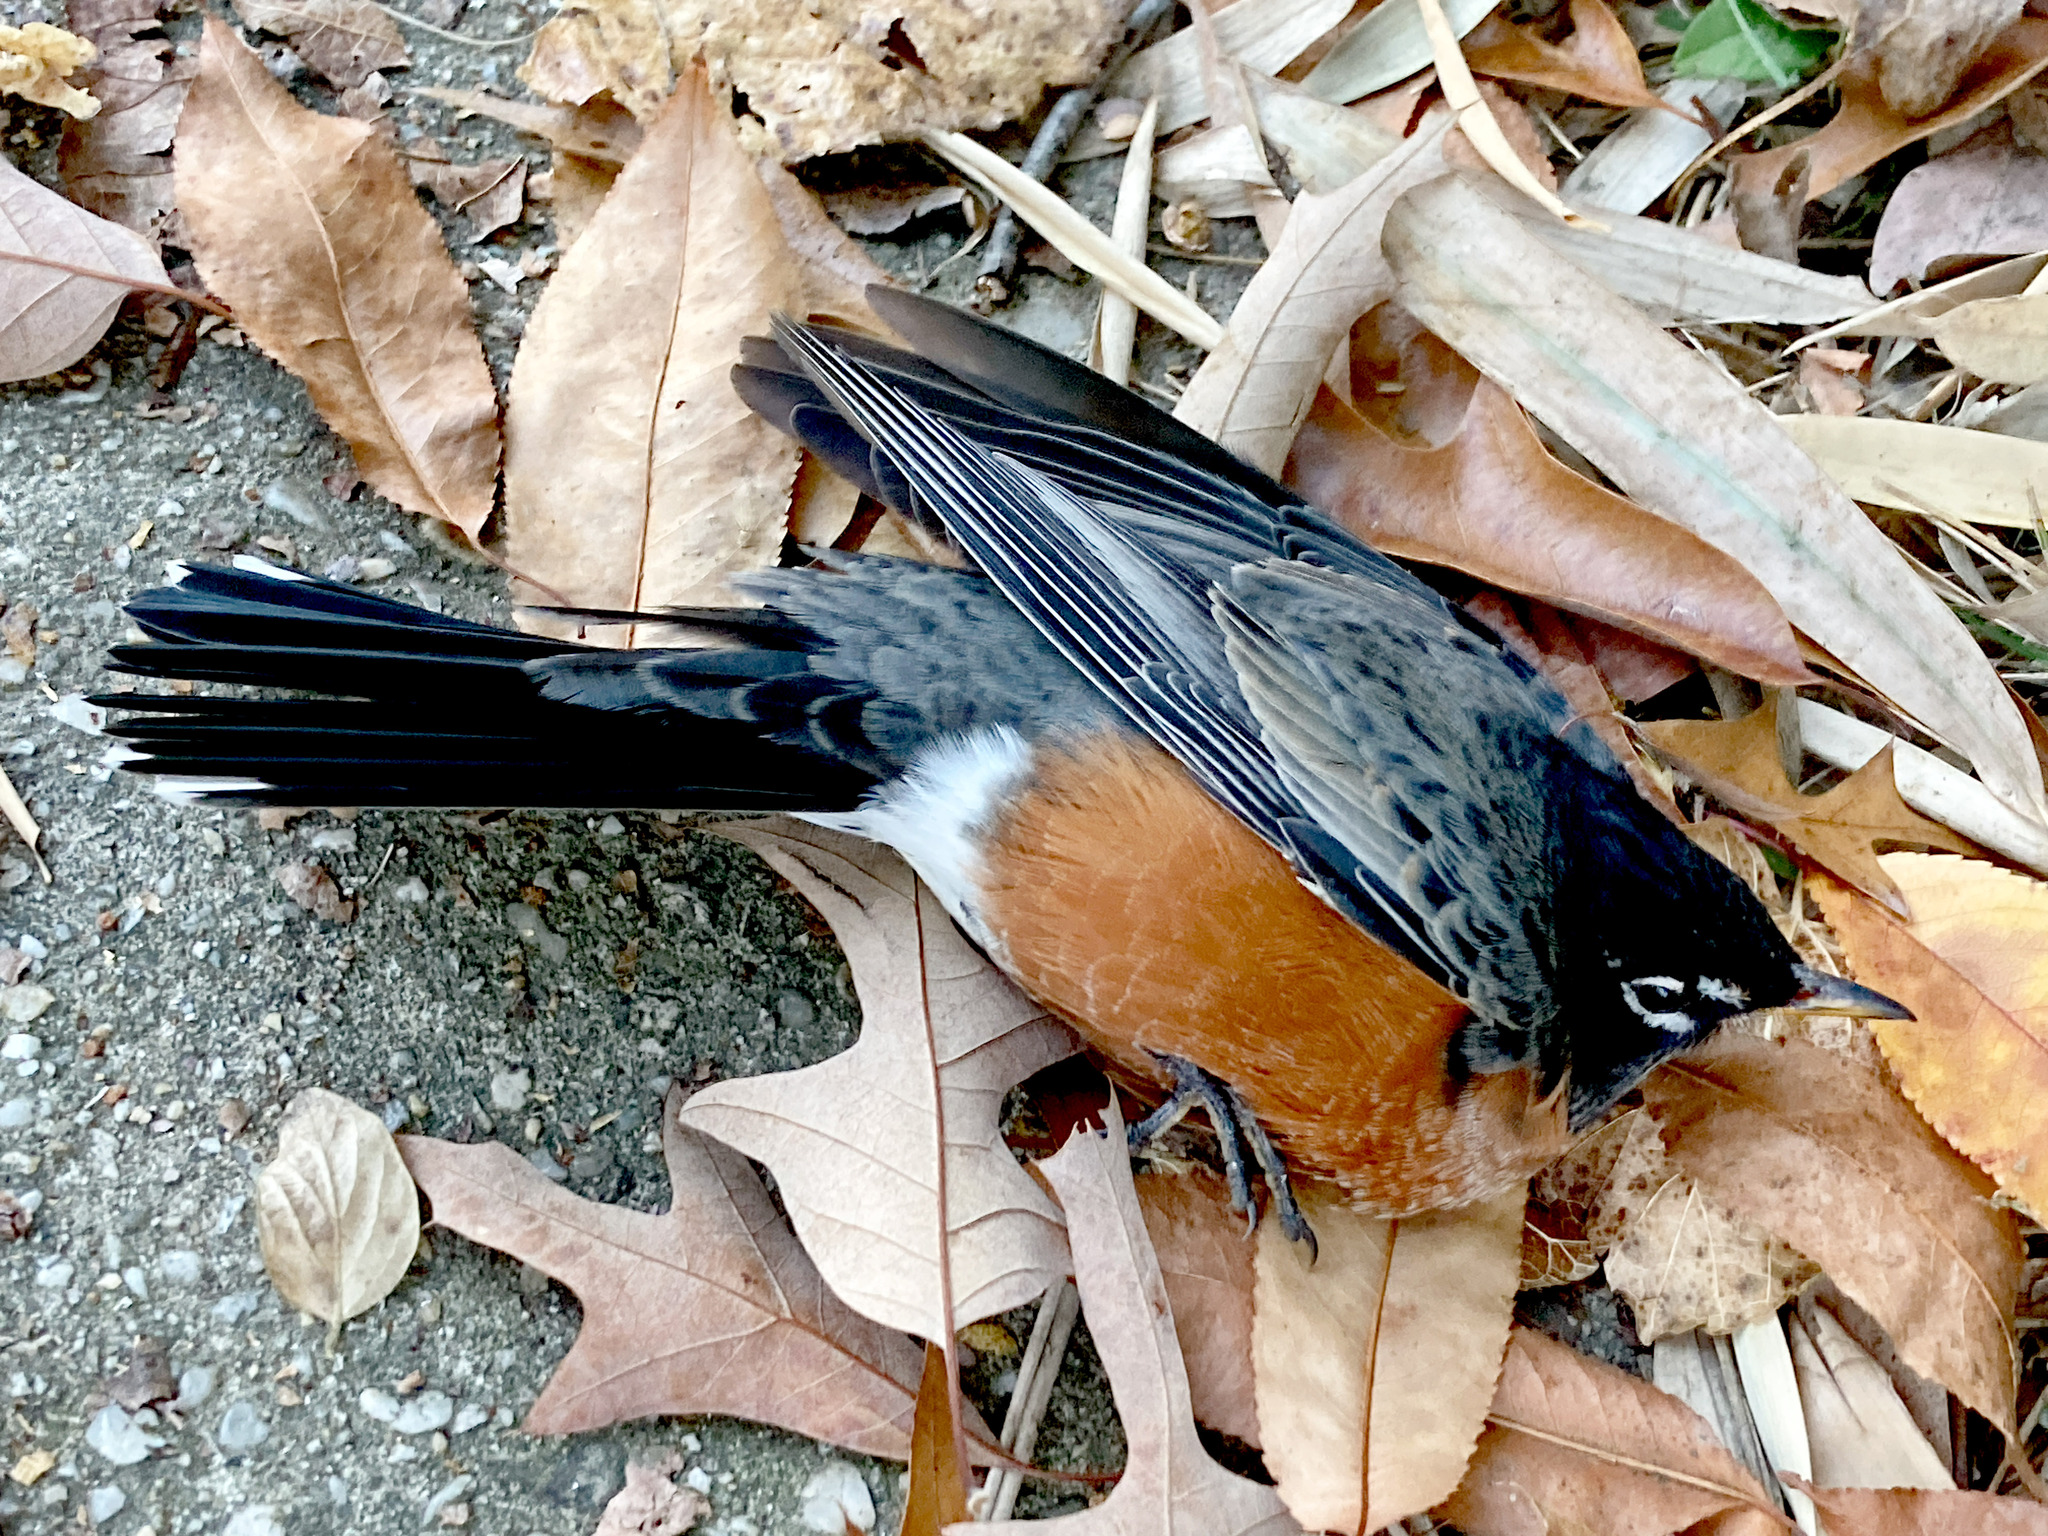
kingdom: Animalia
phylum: Chordata
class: Aves
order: Passeriformes
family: Turdidae
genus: Turdus
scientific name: Turdus migratorius
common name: American robin
